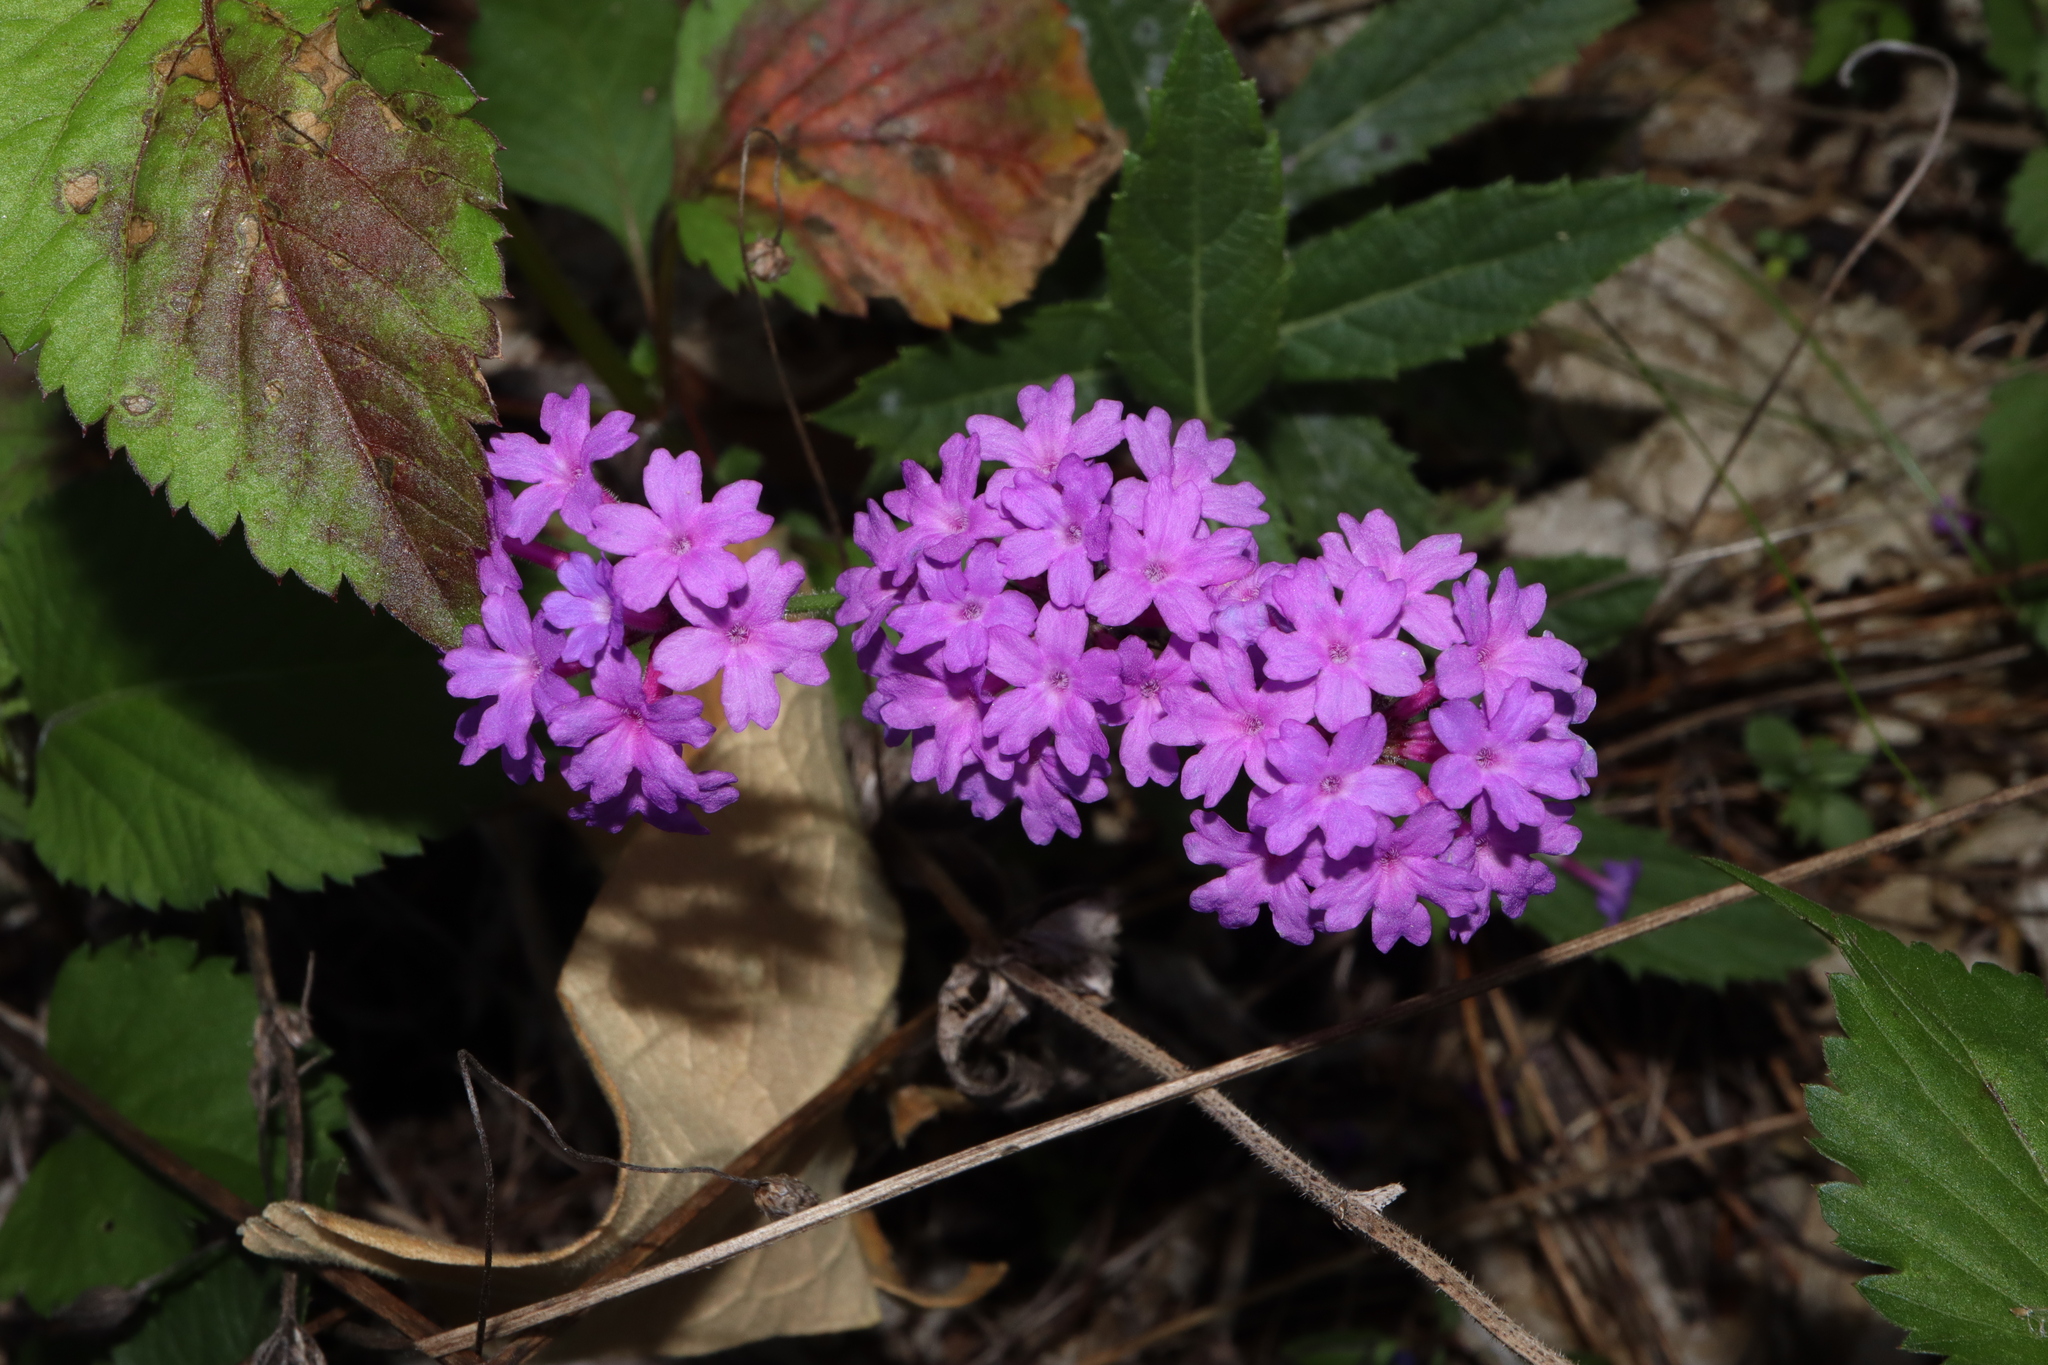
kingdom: Plantae
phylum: Tracheophyta
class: Magnoliopsida
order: Lamiales
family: Verbenaceae
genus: Verbena
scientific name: Verbena rigida
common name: Slender vervain
